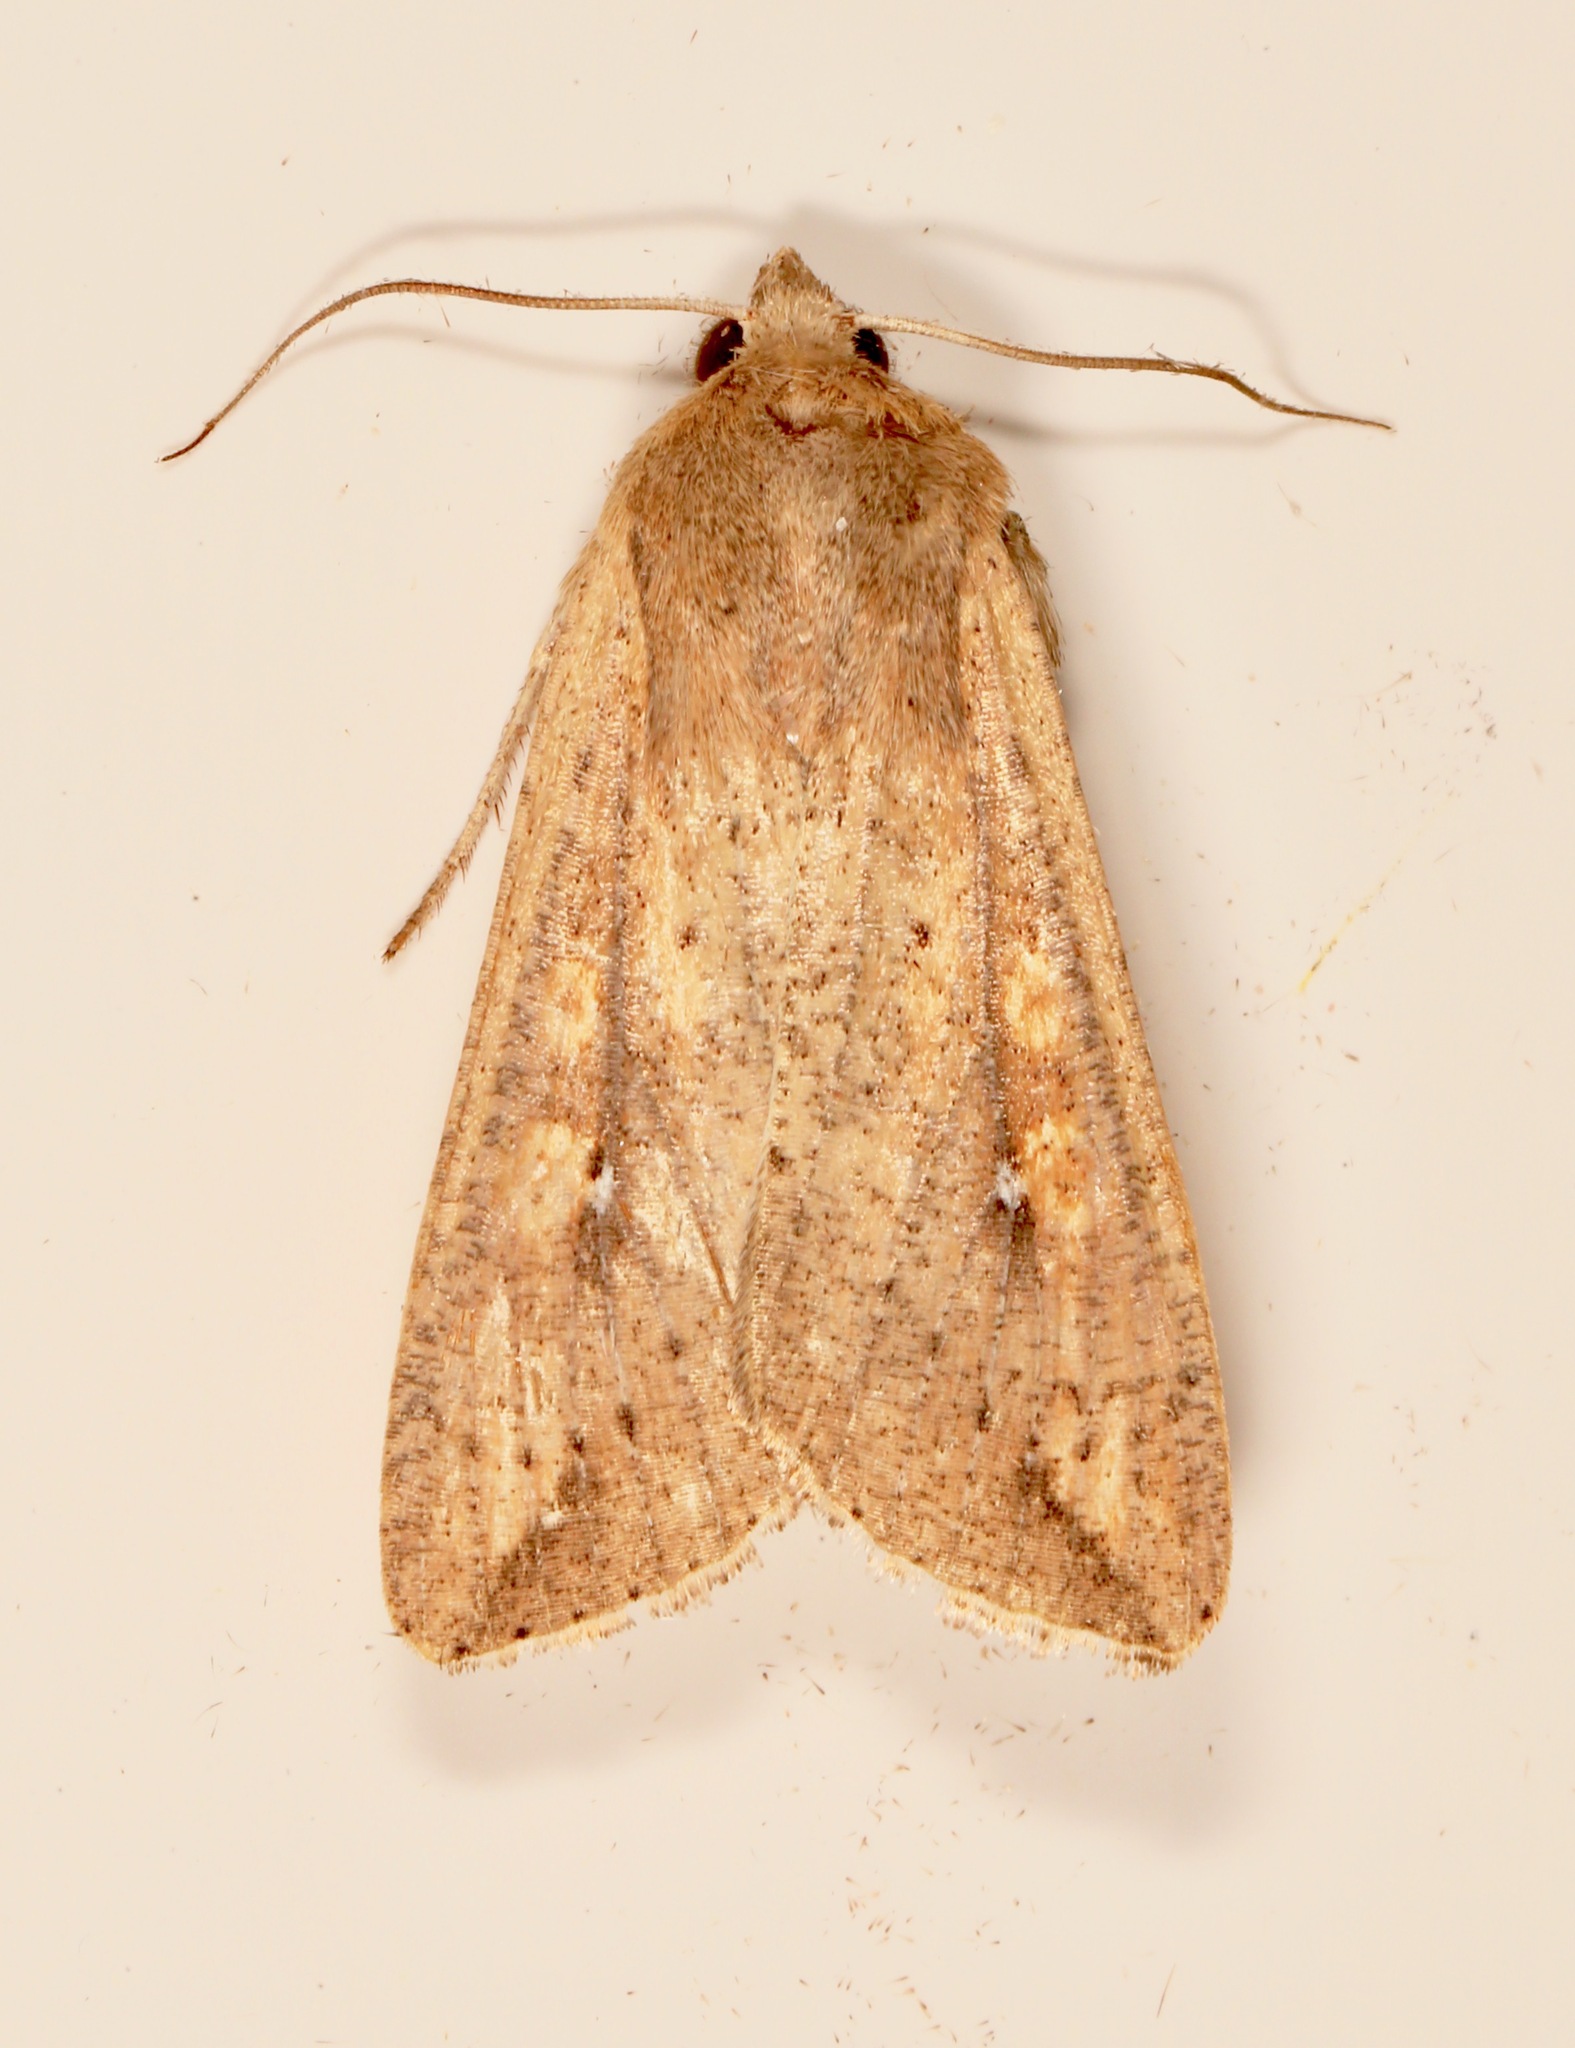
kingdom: Animalia
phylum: Arthropoda
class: Insecta
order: Lepidoptera
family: Noctuidae
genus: Mythimna
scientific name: Mythimna unipuncta
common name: White-speck
